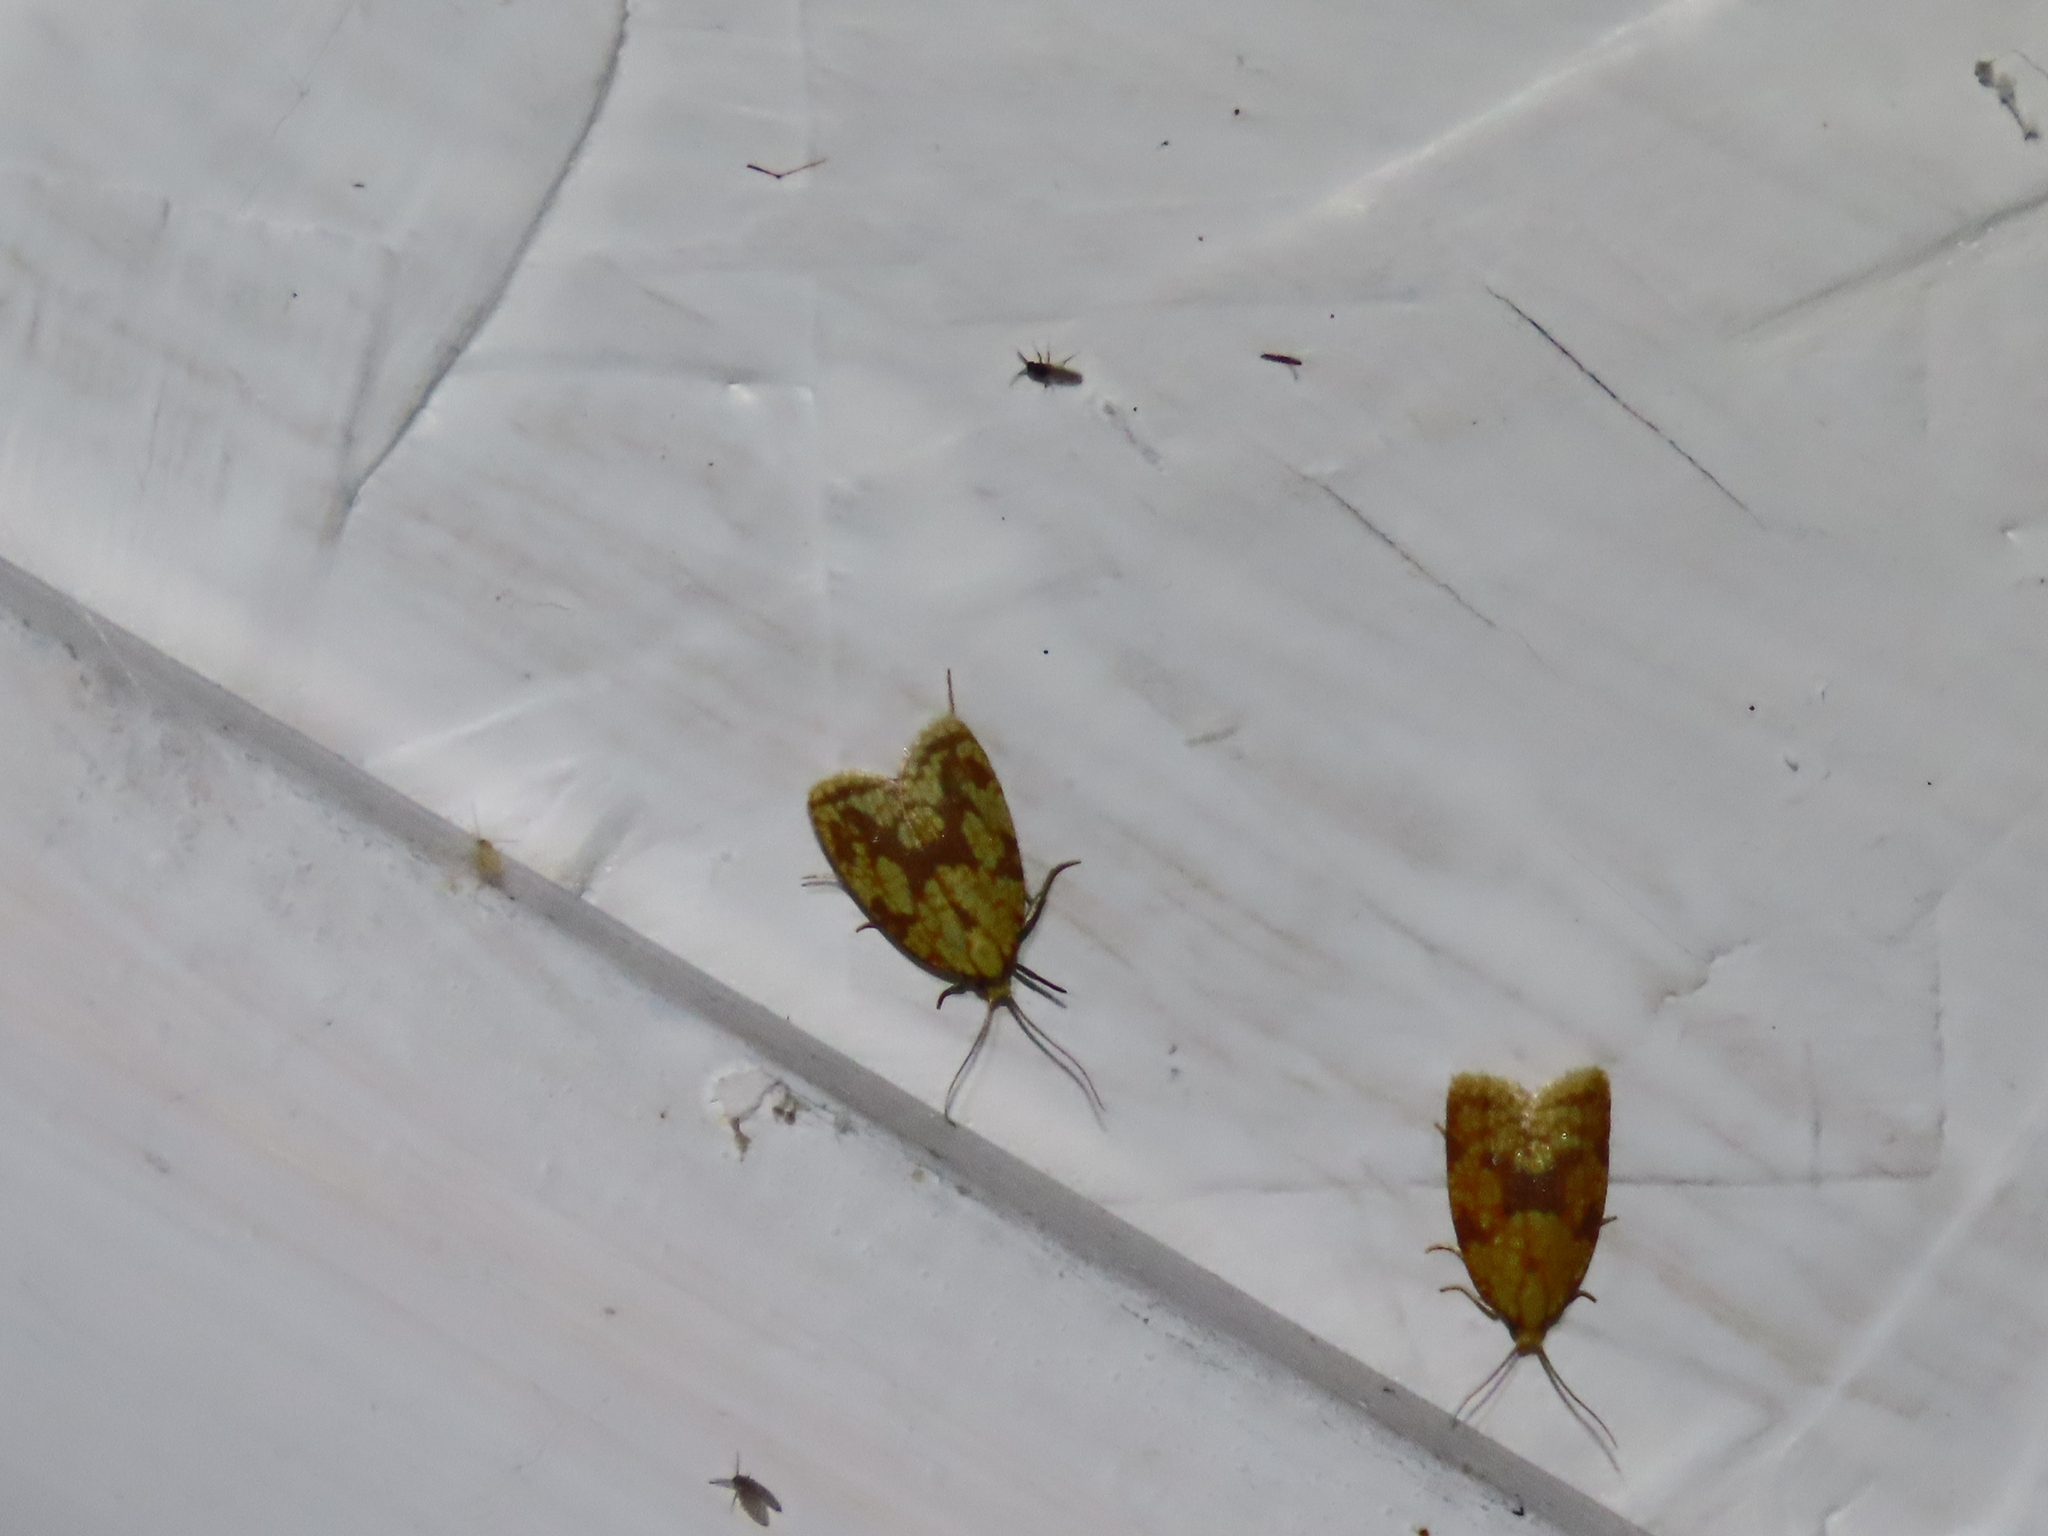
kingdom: Animalia
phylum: Arthropoda
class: Insecta
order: Lepidoptera
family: Tortricidae
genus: Sparganothis
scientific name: Sparganothis sulfureana
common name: Sparganothis fruitworm moth
